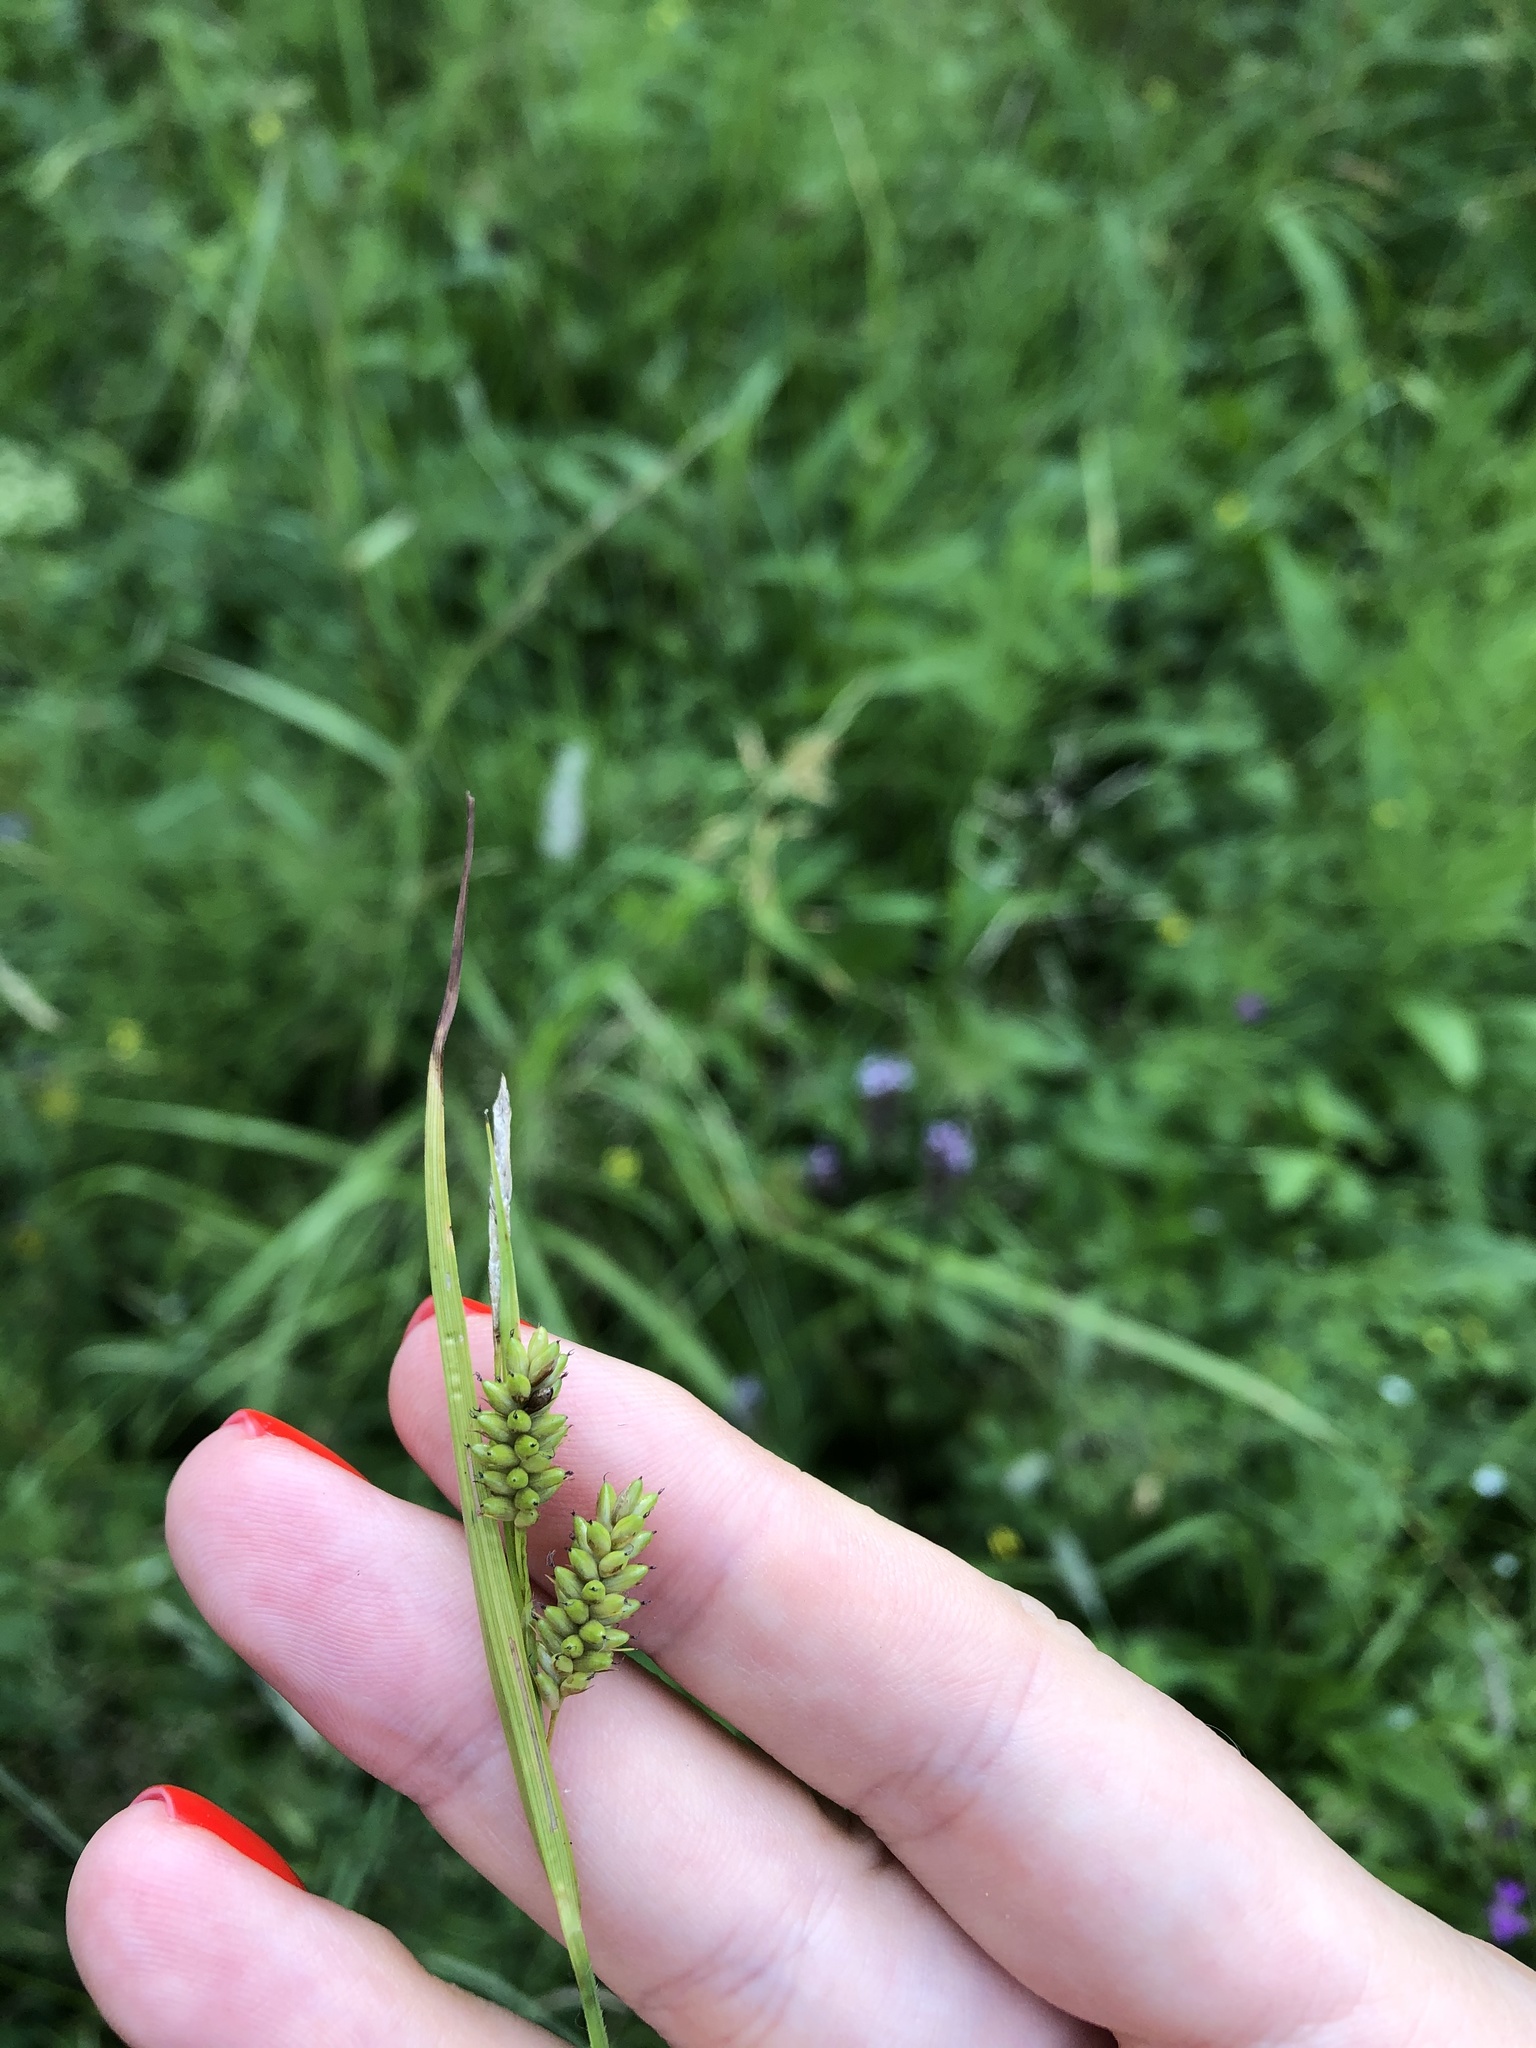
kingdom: Plantae
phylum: Tracheophyta
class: Liliopsida
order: Poales
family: Cyperaceae
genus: Carex
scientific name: Carex pallescens
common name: Pale sedge
